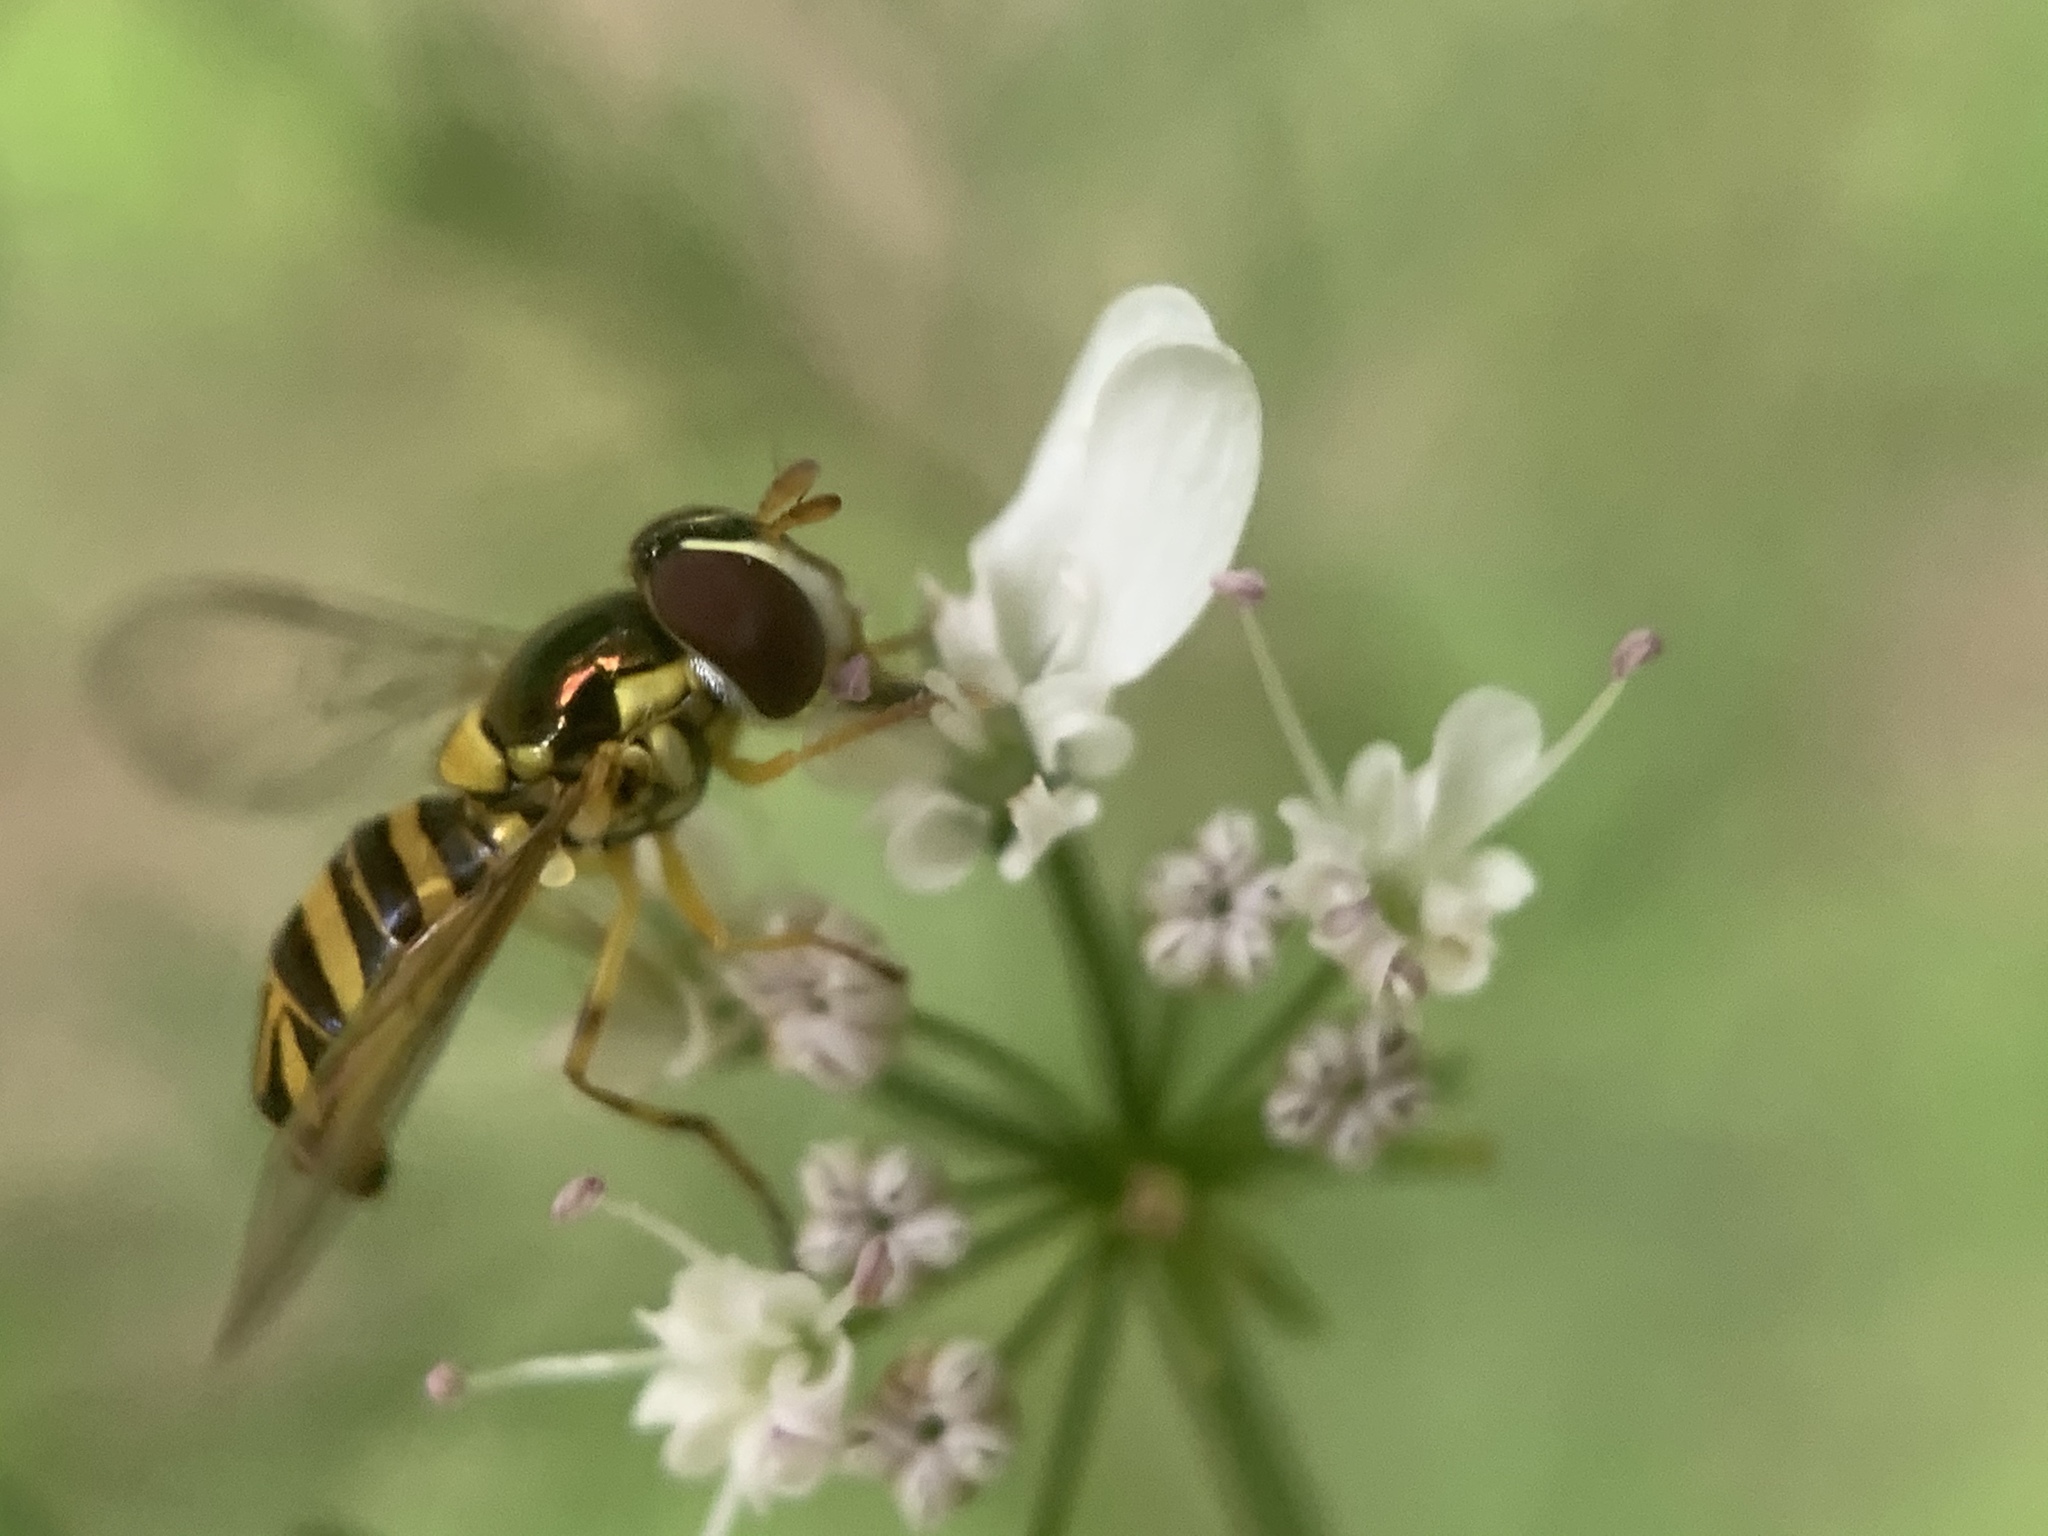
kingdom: Animalia
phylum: Arthropoda
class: Insecta
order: Diptera
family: Syrphidae
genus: Allograpta
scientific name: Allograpta obliqua
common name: Common oblique syrphid
